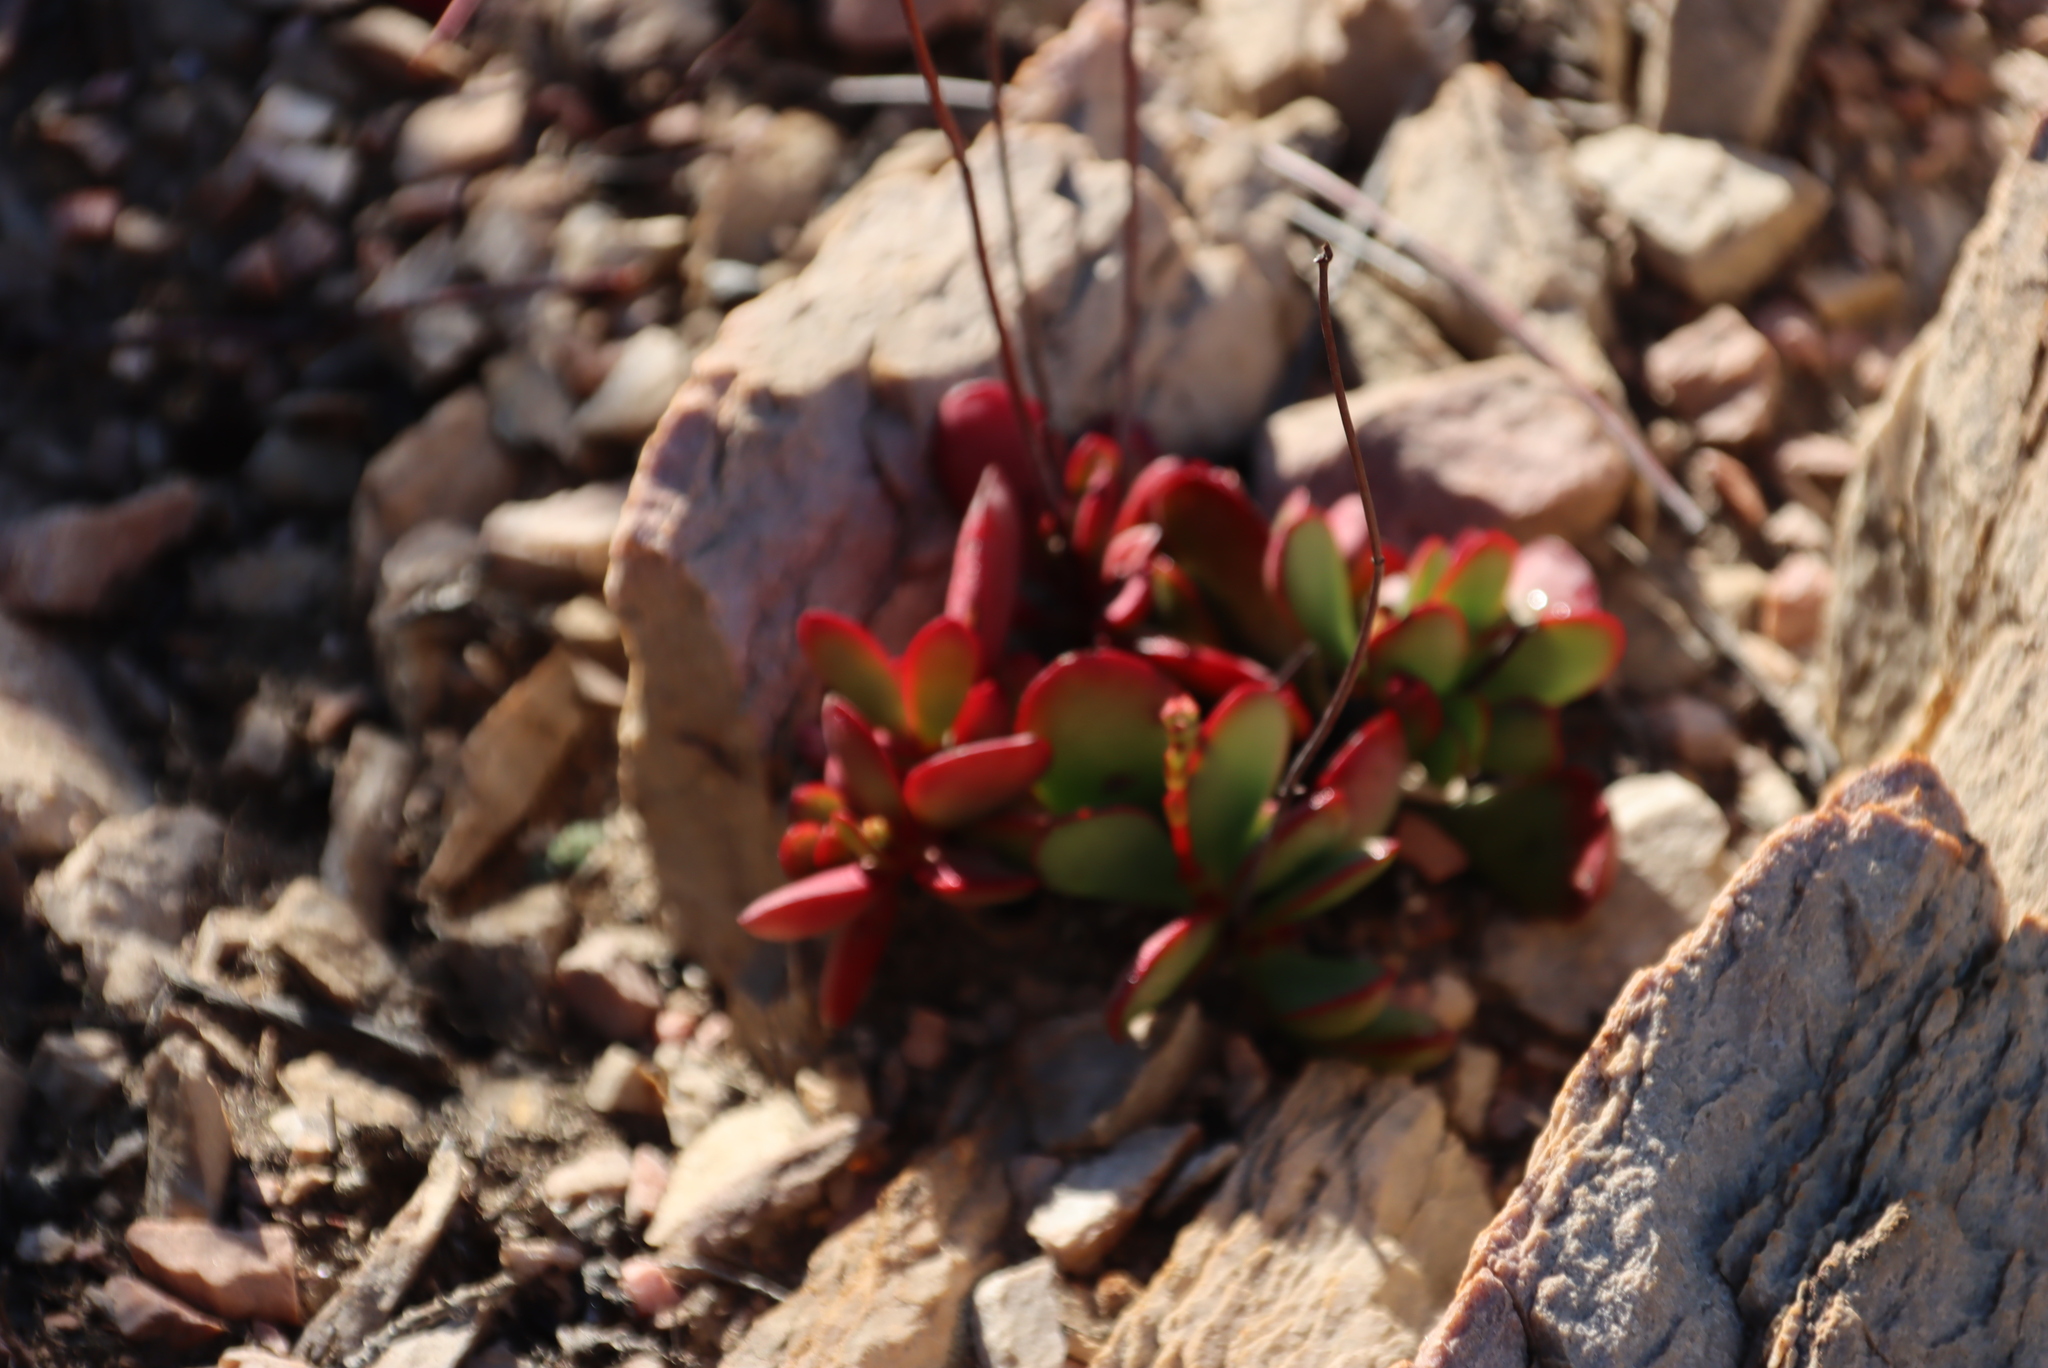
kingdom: Plantae
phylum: Tracheophyta
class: Magnoliopsida
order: Saxifragales
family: Crassulaceae
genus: Crassula
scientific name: Crassula nudicaulis
